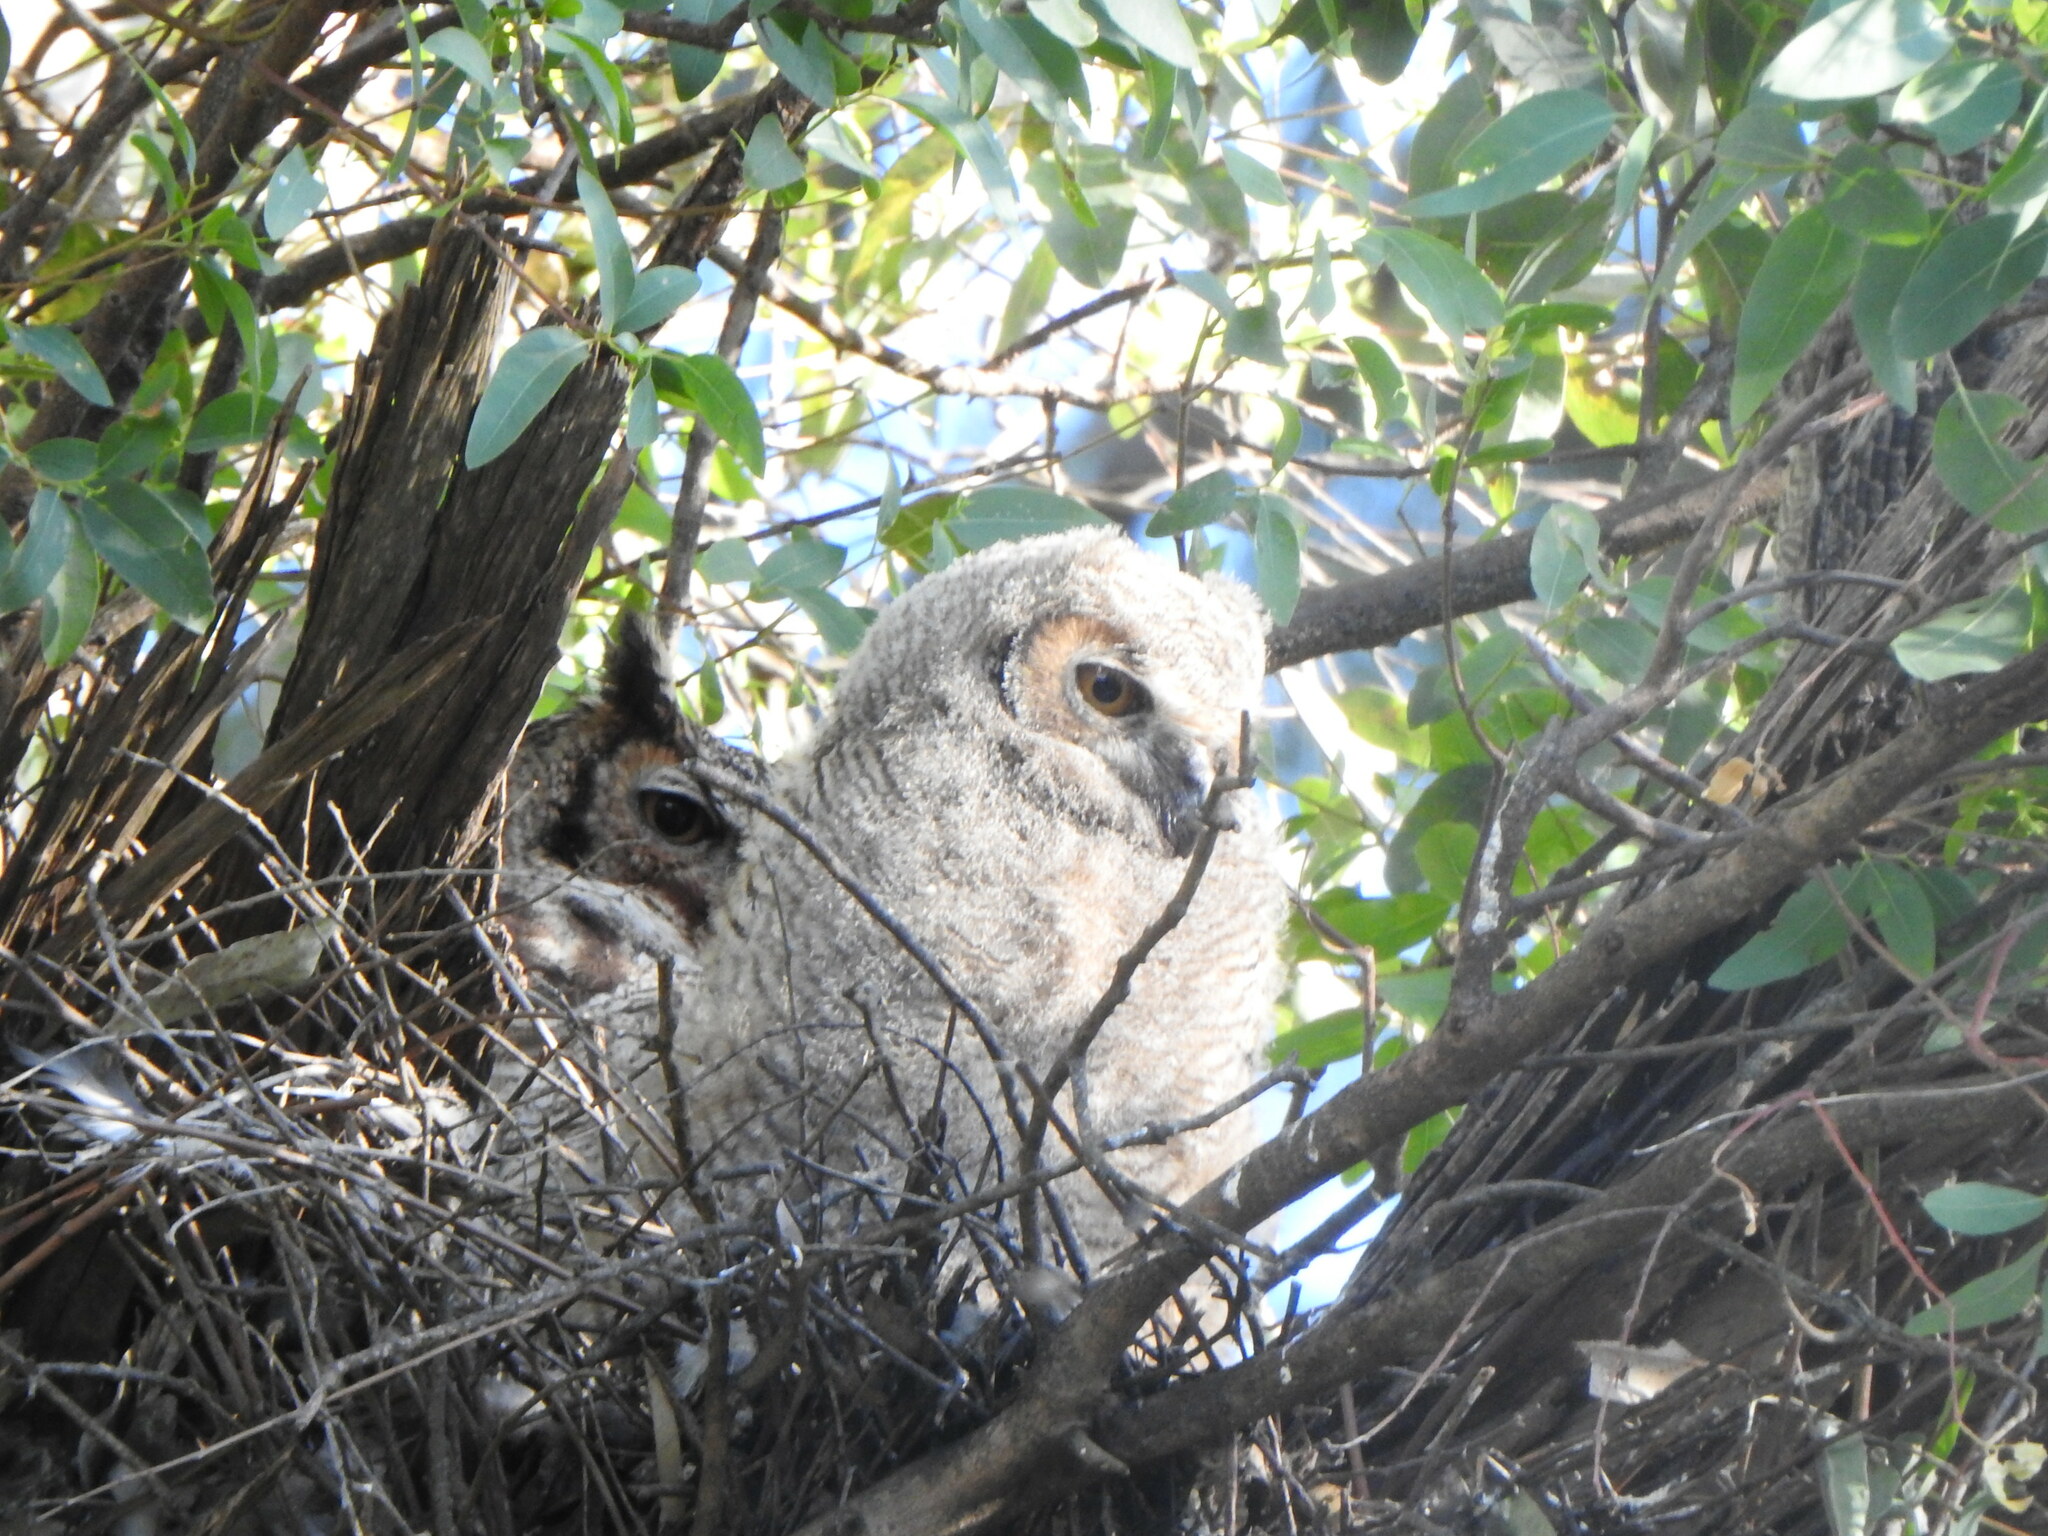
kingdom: Animalia
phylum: Chordata
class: Aves
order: Strigiformes
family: Strigidae
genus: Bubo
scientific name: Bubo virginianus
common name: Great horned owl
